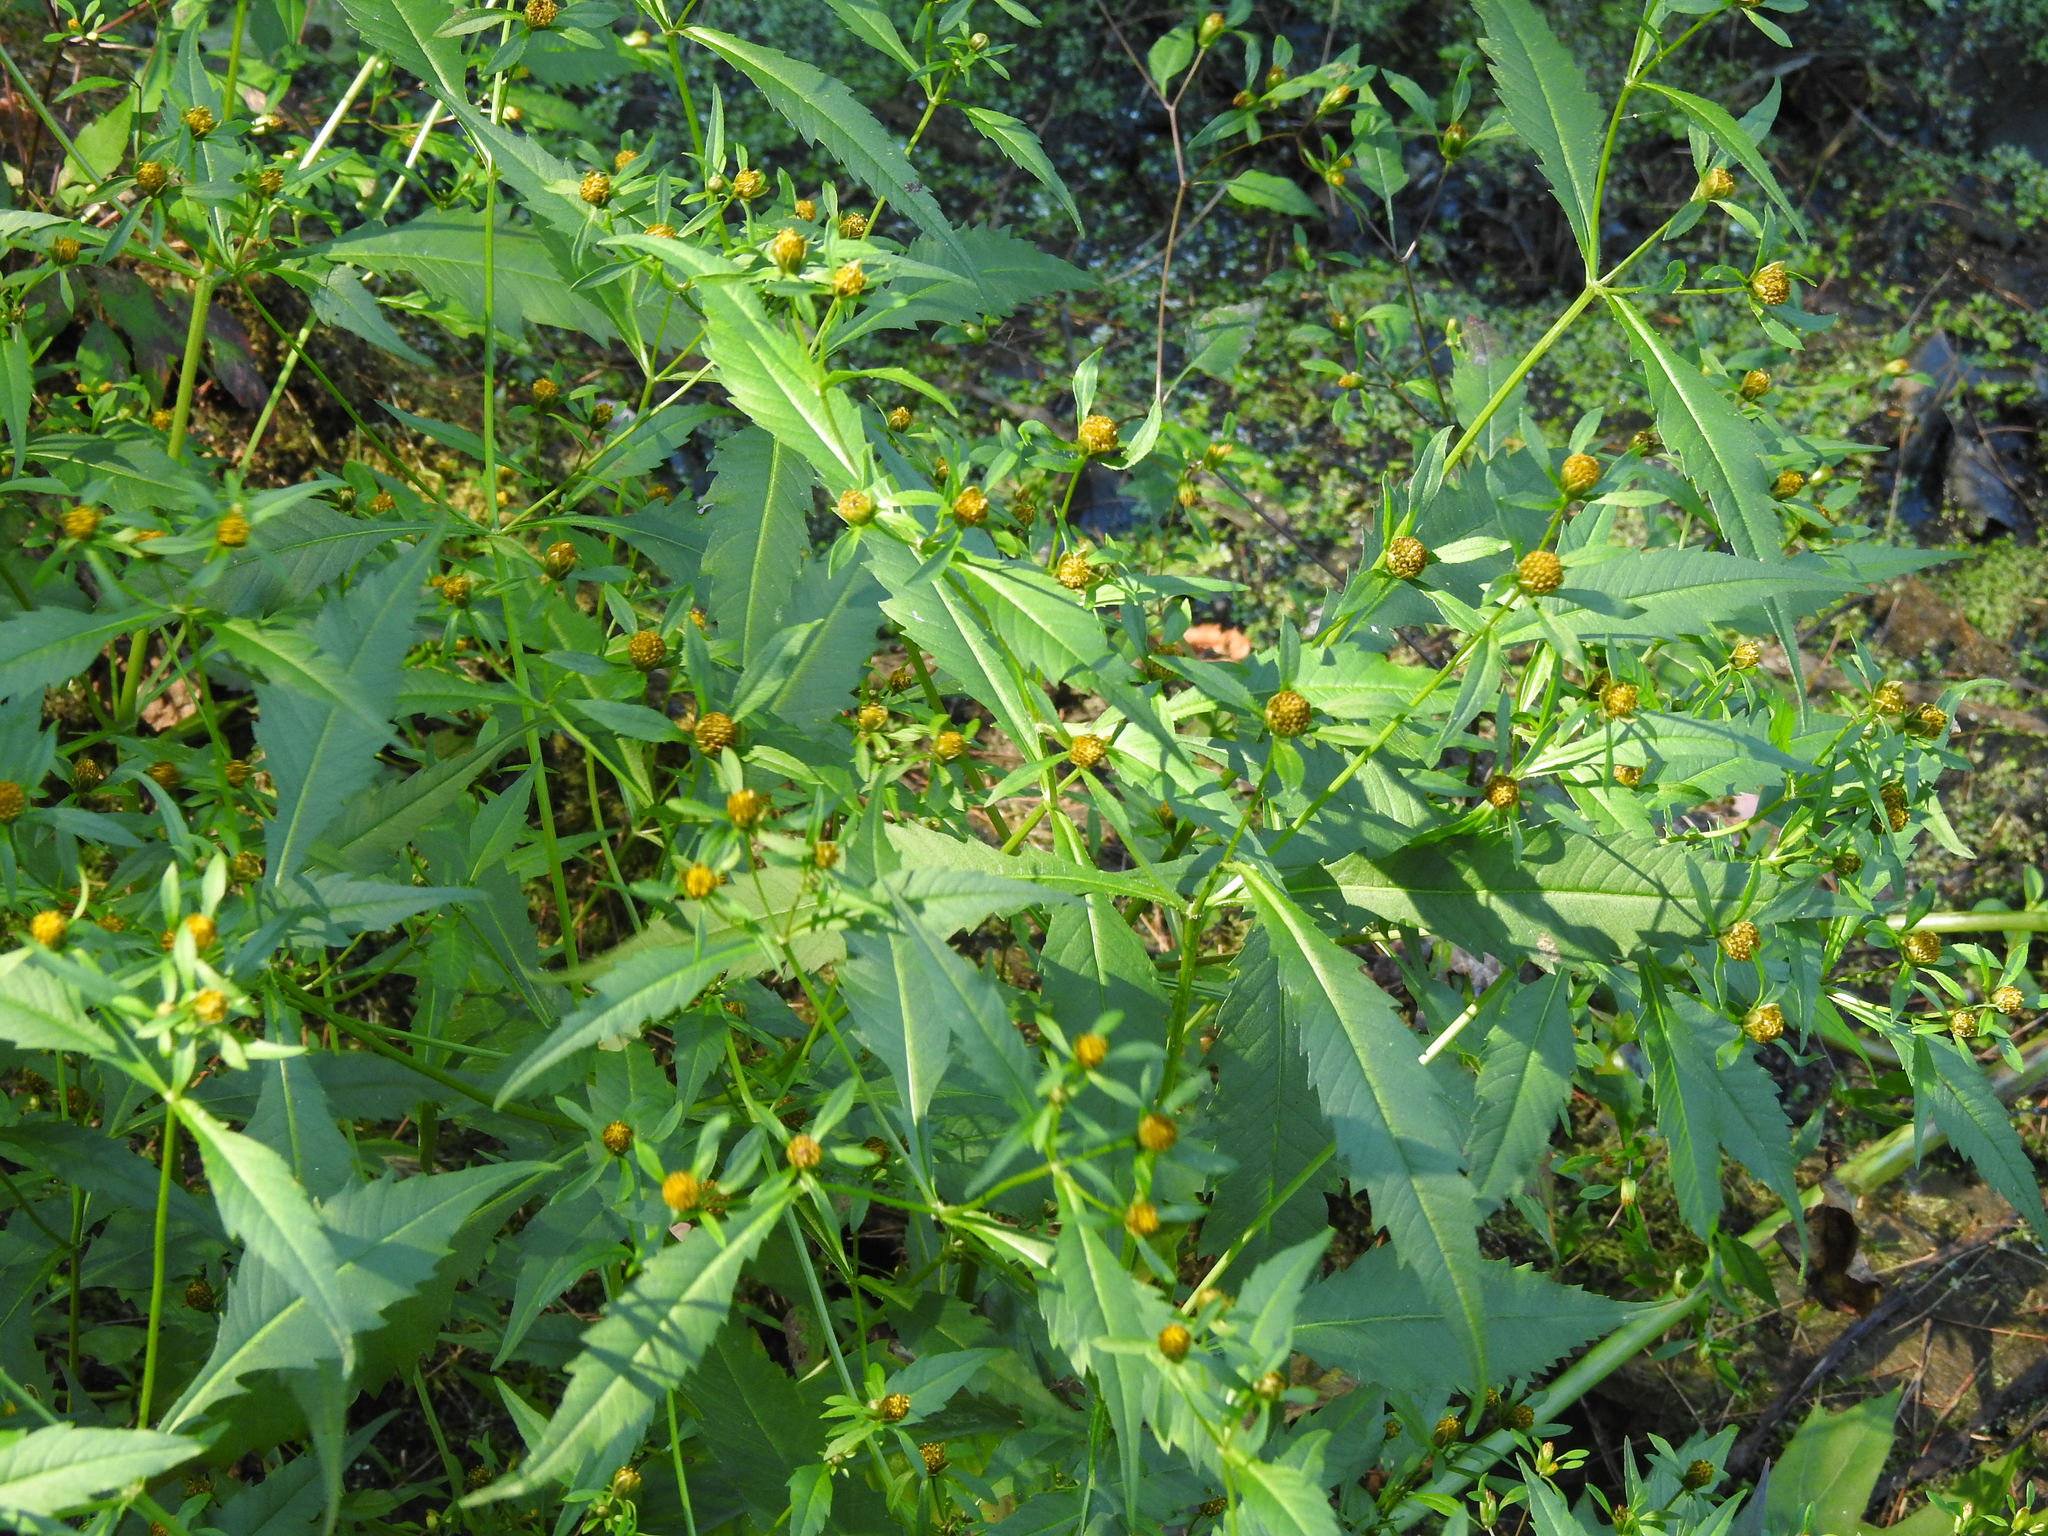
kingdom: Plantae
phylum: Tracheophyta
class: Magnoliopsida
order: Asterales
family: Asteraceae
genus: Bidens
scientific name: Bidens connata
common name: London bur-marigold
